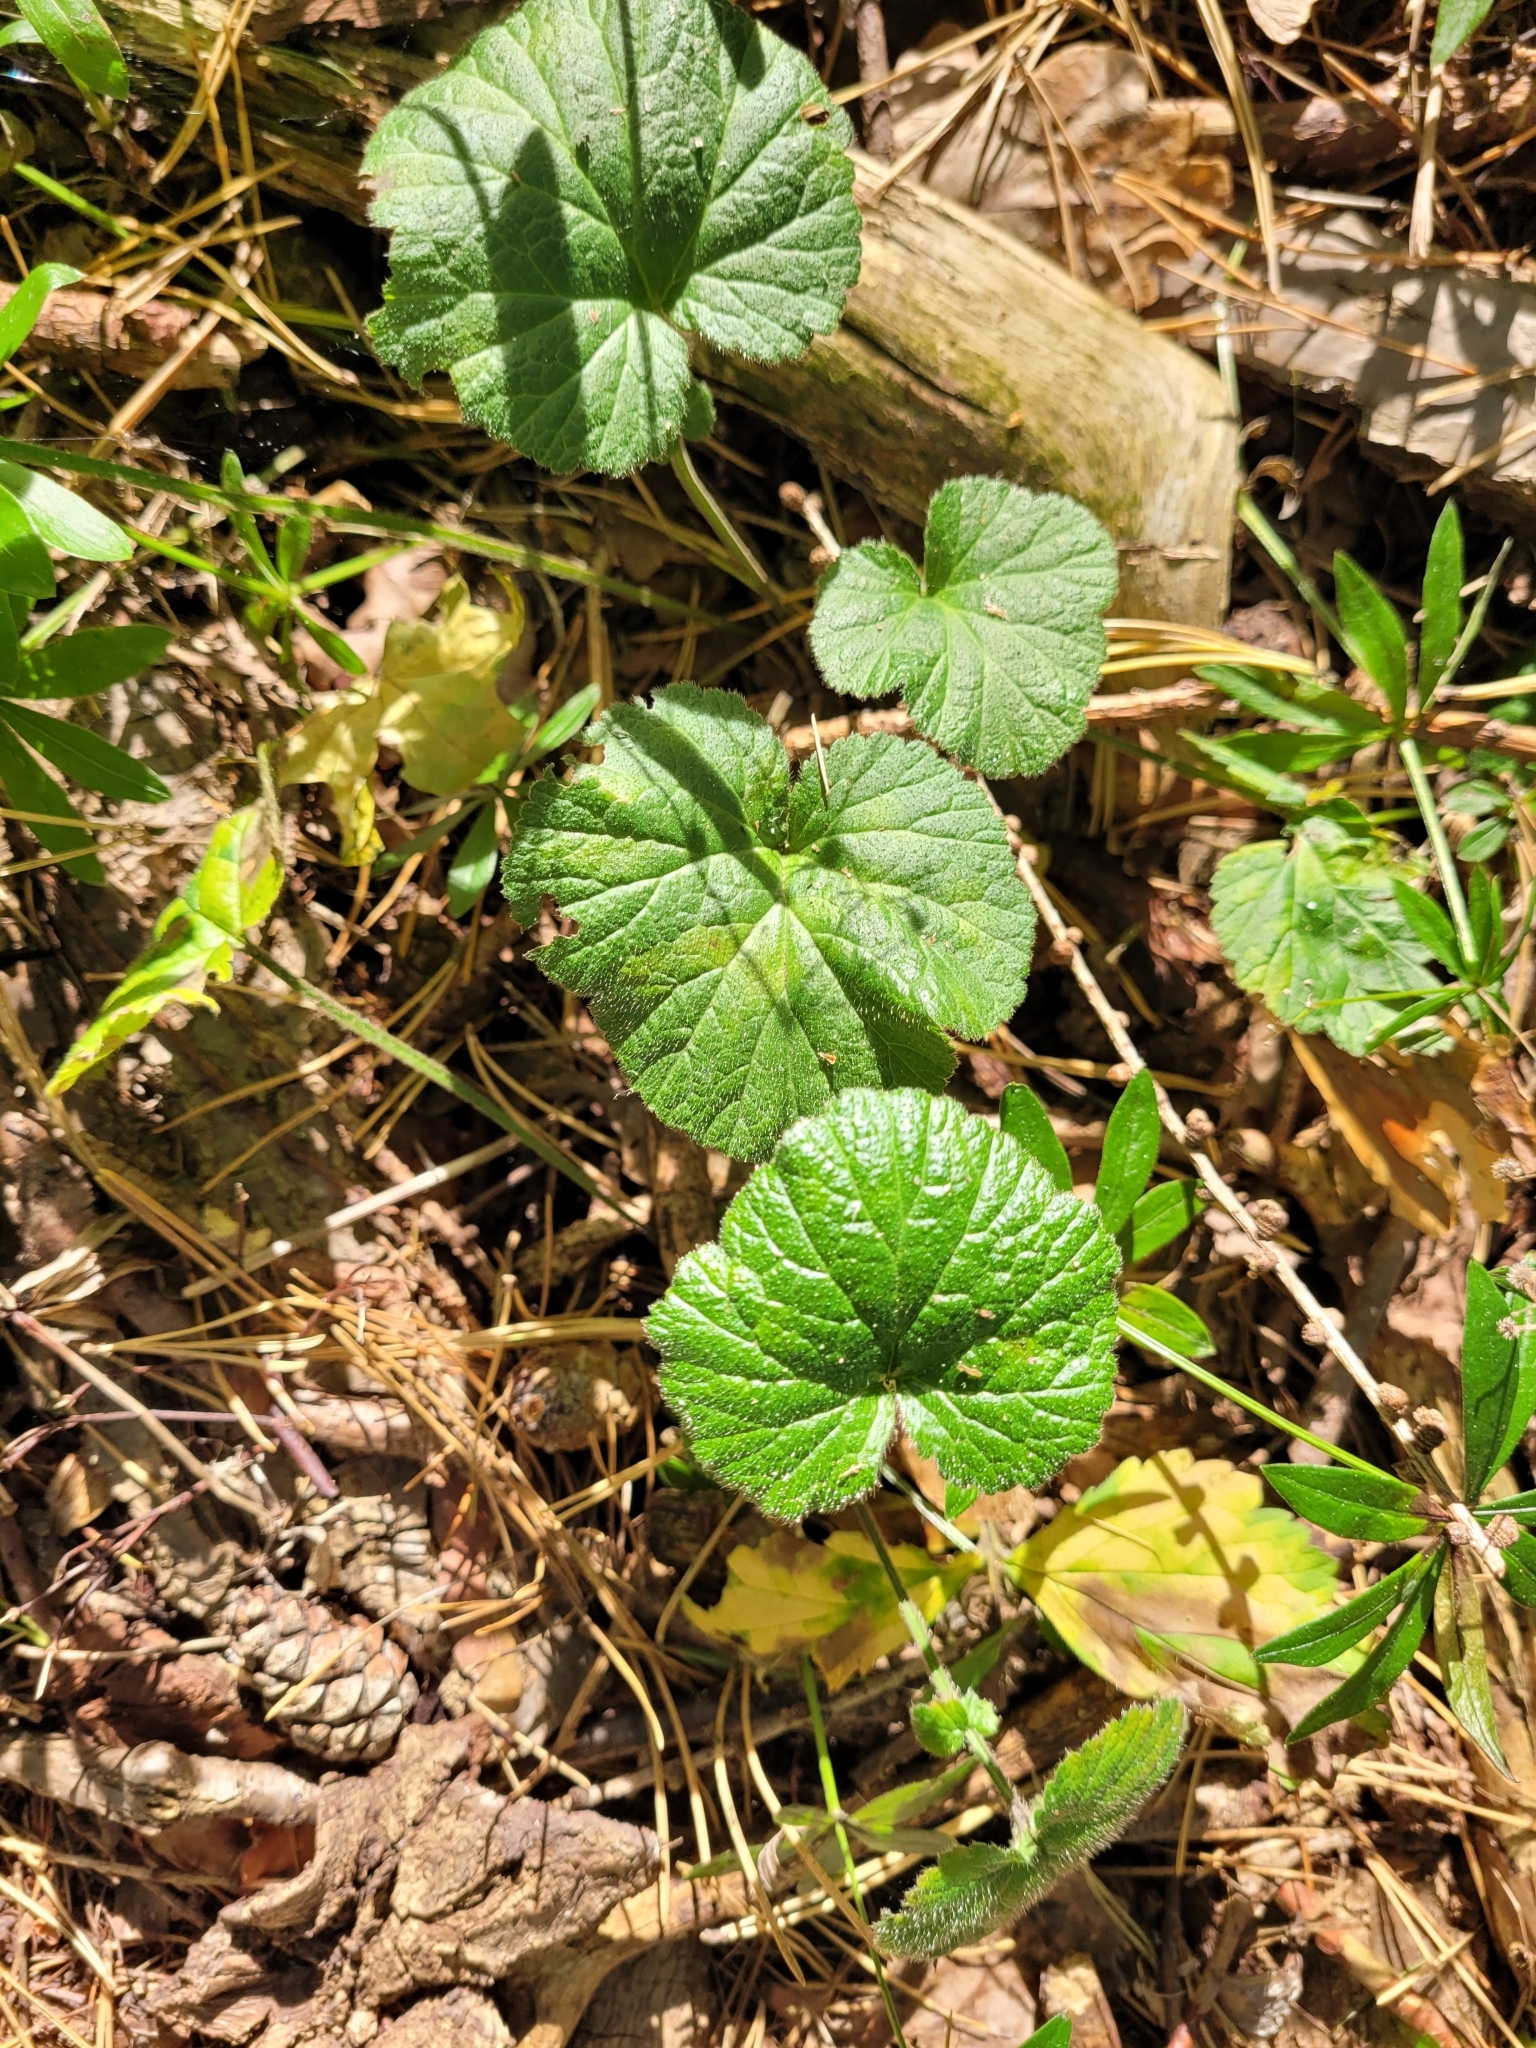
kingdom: Plantae
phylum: Tracheophyta
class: Magnoliopsida
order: Rosales
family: Rosaceae
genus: Geum
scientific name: Geum urbanum
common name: Wood avens
